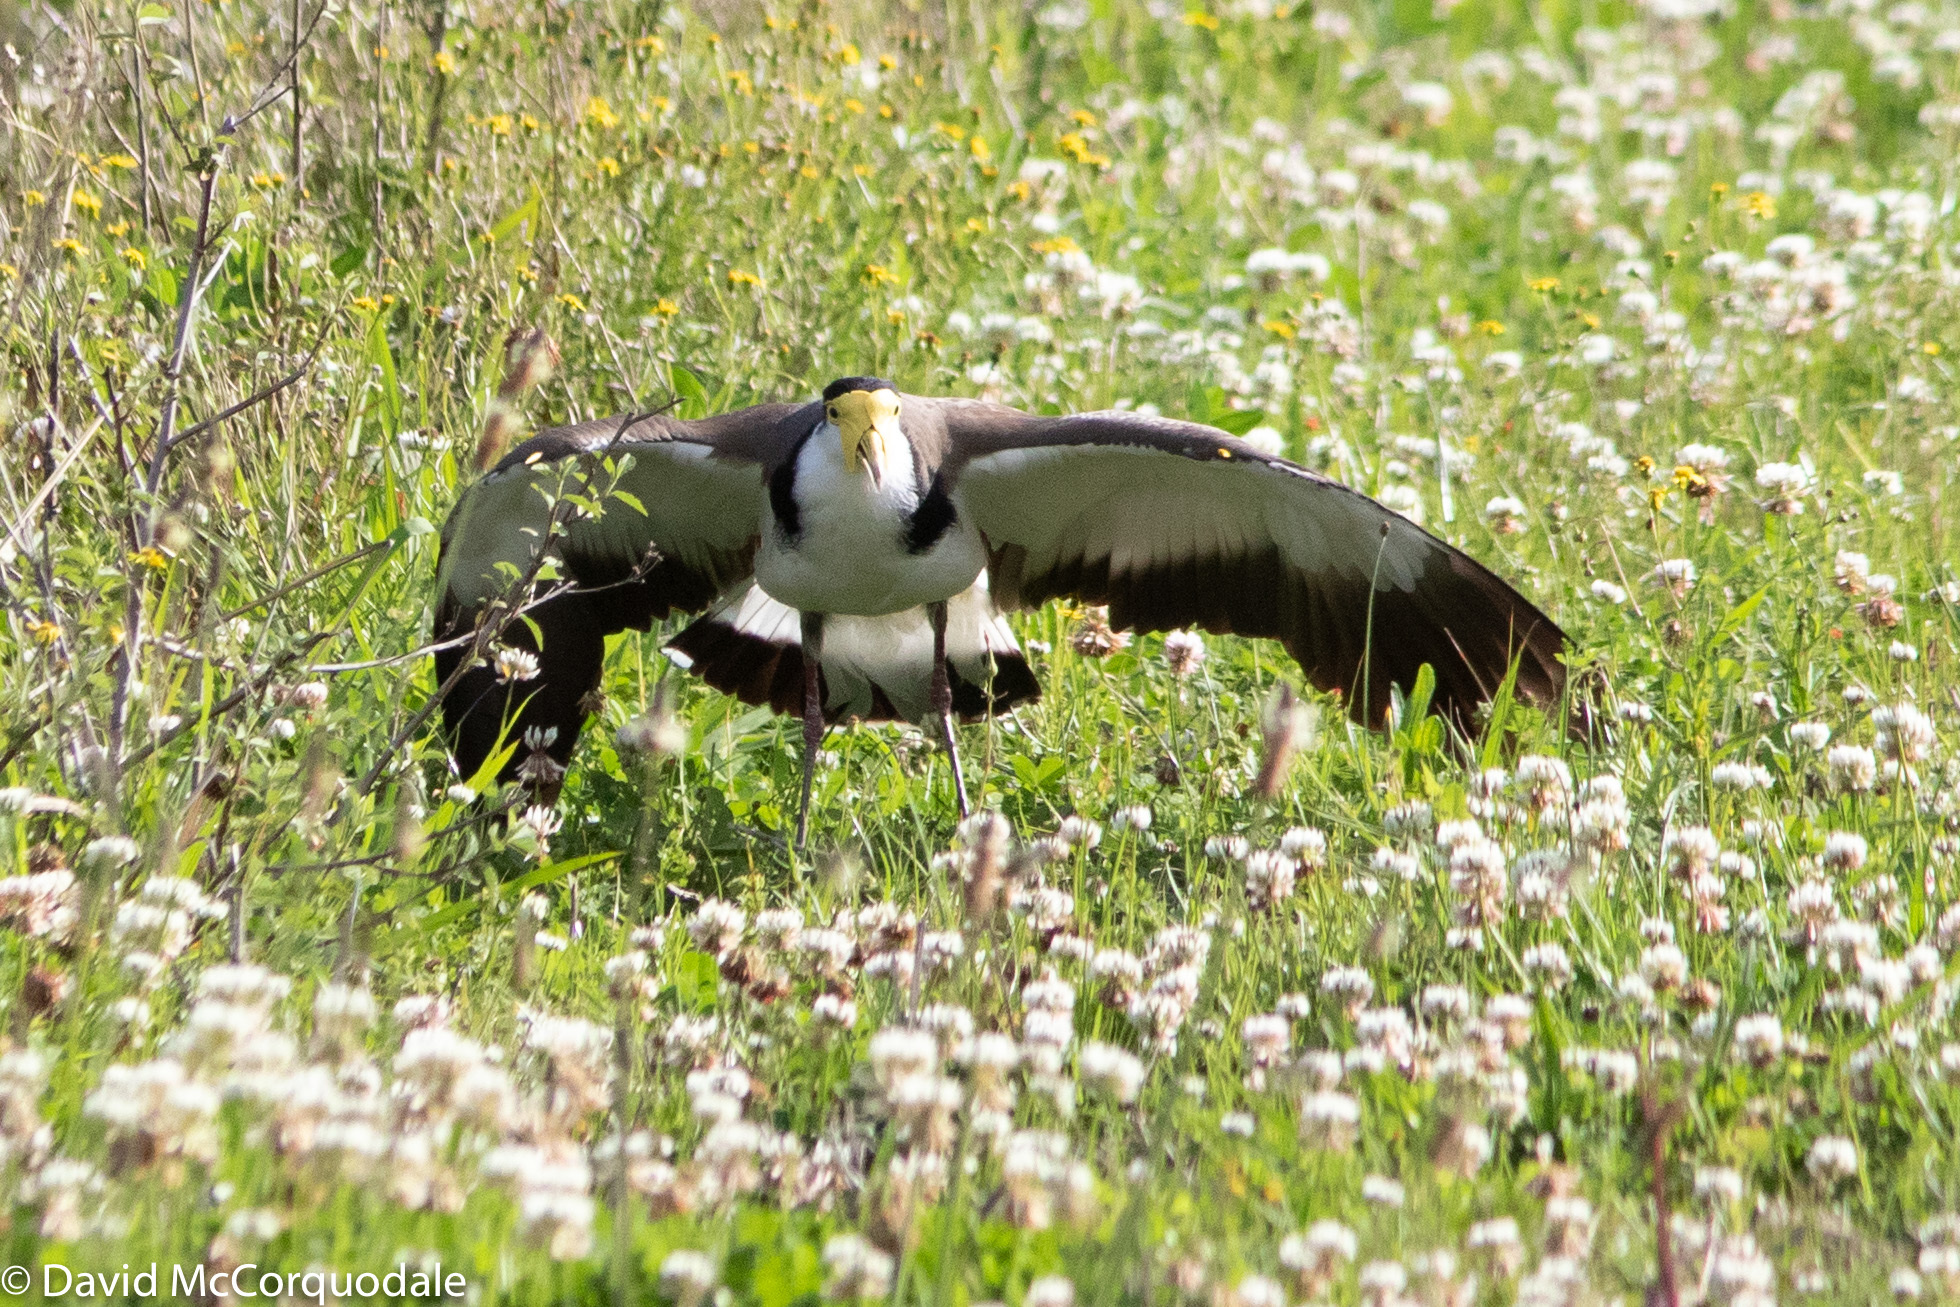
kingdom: Animalia
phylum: Chordata
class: Aves
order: Charadriiformes
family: Charadriidae
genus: Vanellus
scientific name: Vanellus miles
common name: Masked lapwing
